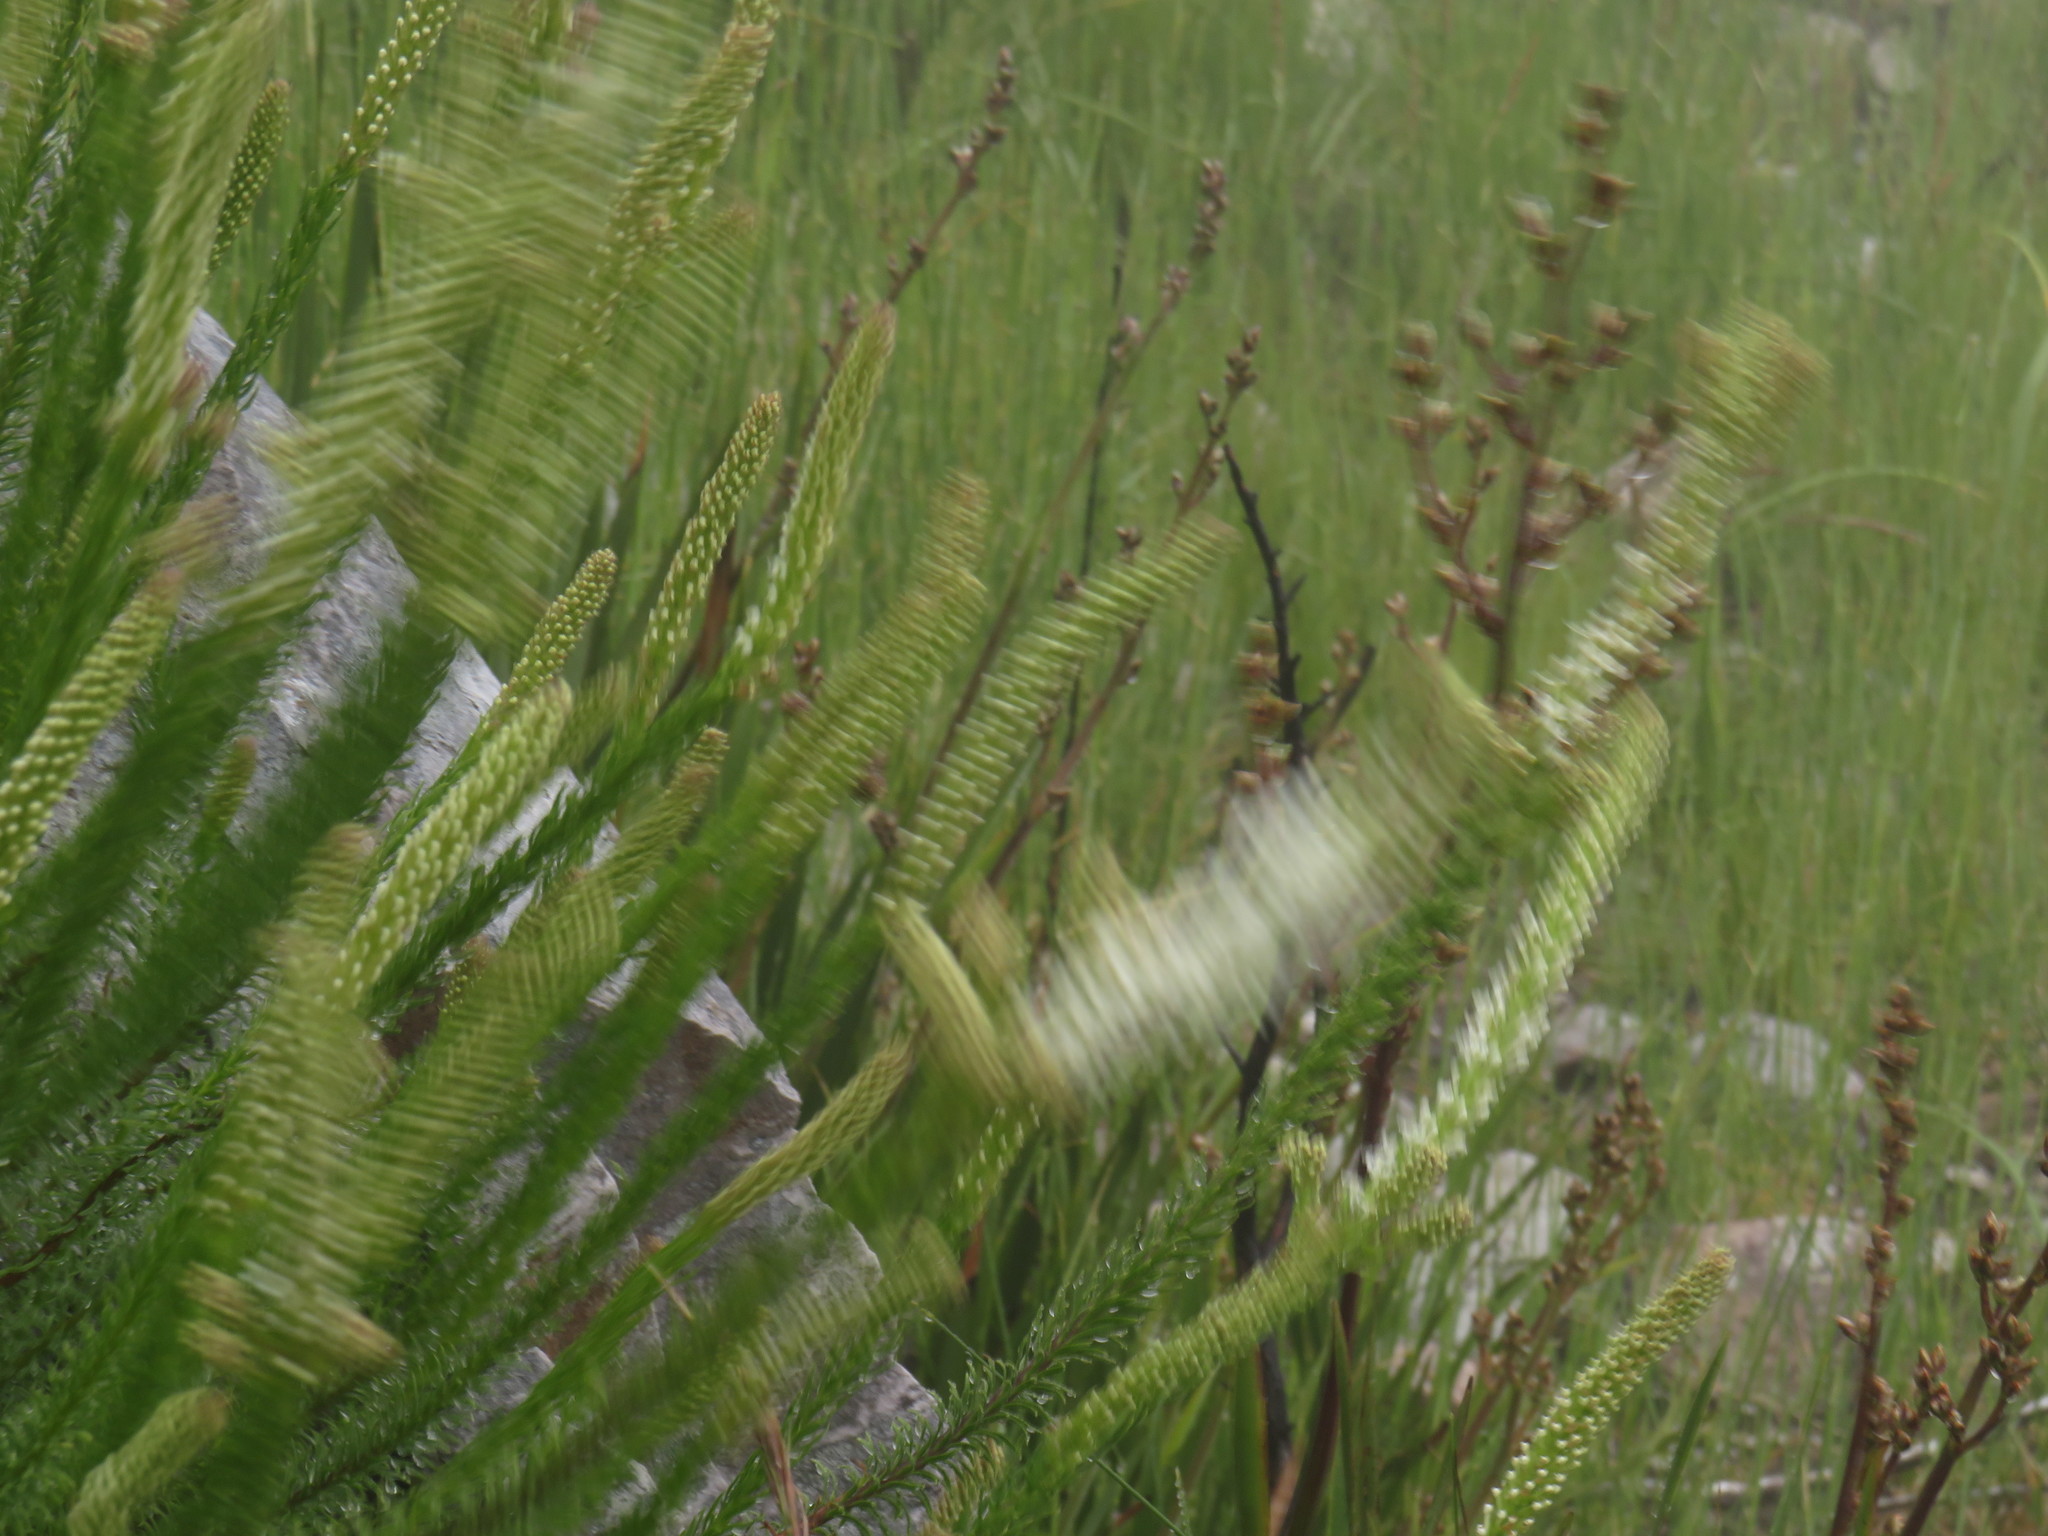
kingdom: Plantae
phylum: Tracheophyta
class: Magnoliopsida
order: Lamiales
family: Scrophulariaceae
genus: Selago
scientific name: Selago hispida
